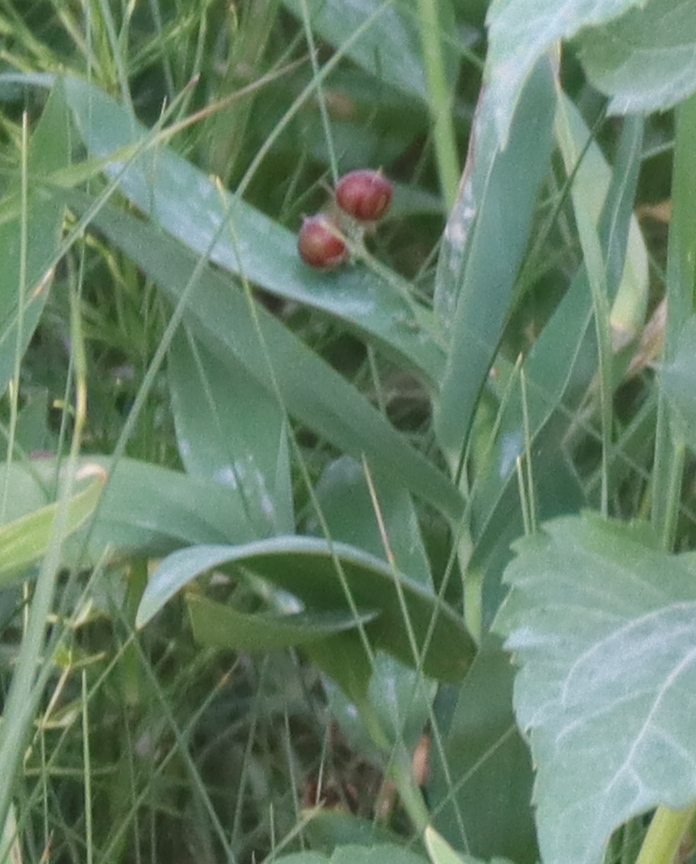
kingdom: Plantae
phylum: Tracheophyta
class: Liliopsida
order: Asparagales
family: Asparagaceae
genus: Maianthemum
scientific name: Maianthemum stellatum
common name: Little false solomon's seal
